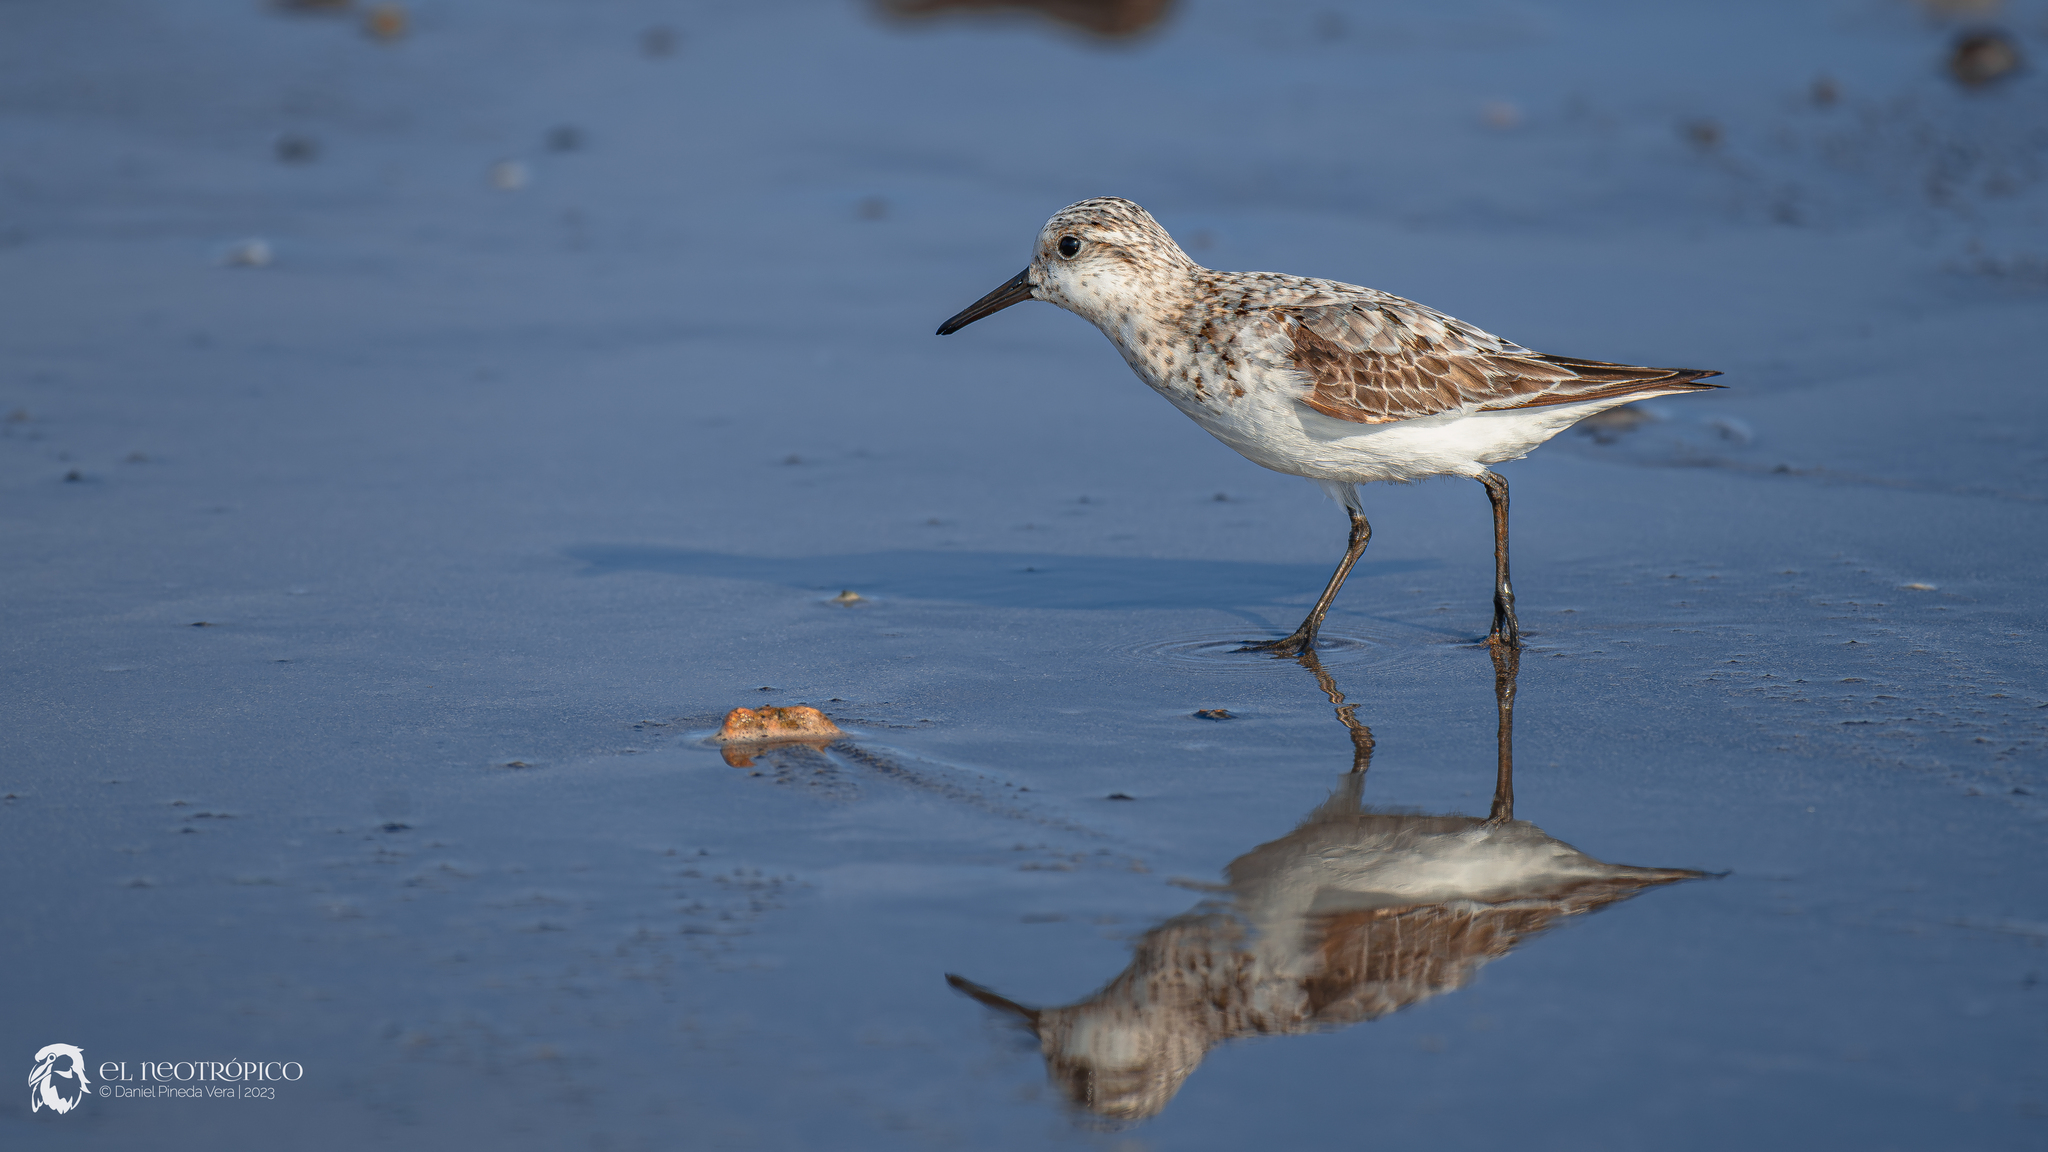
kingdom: Animalia
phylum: Chordata
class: Aves
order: Charadriiformes
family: Scolopacidae
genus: Calidris
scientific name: Calidris alba
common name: Sanderling
